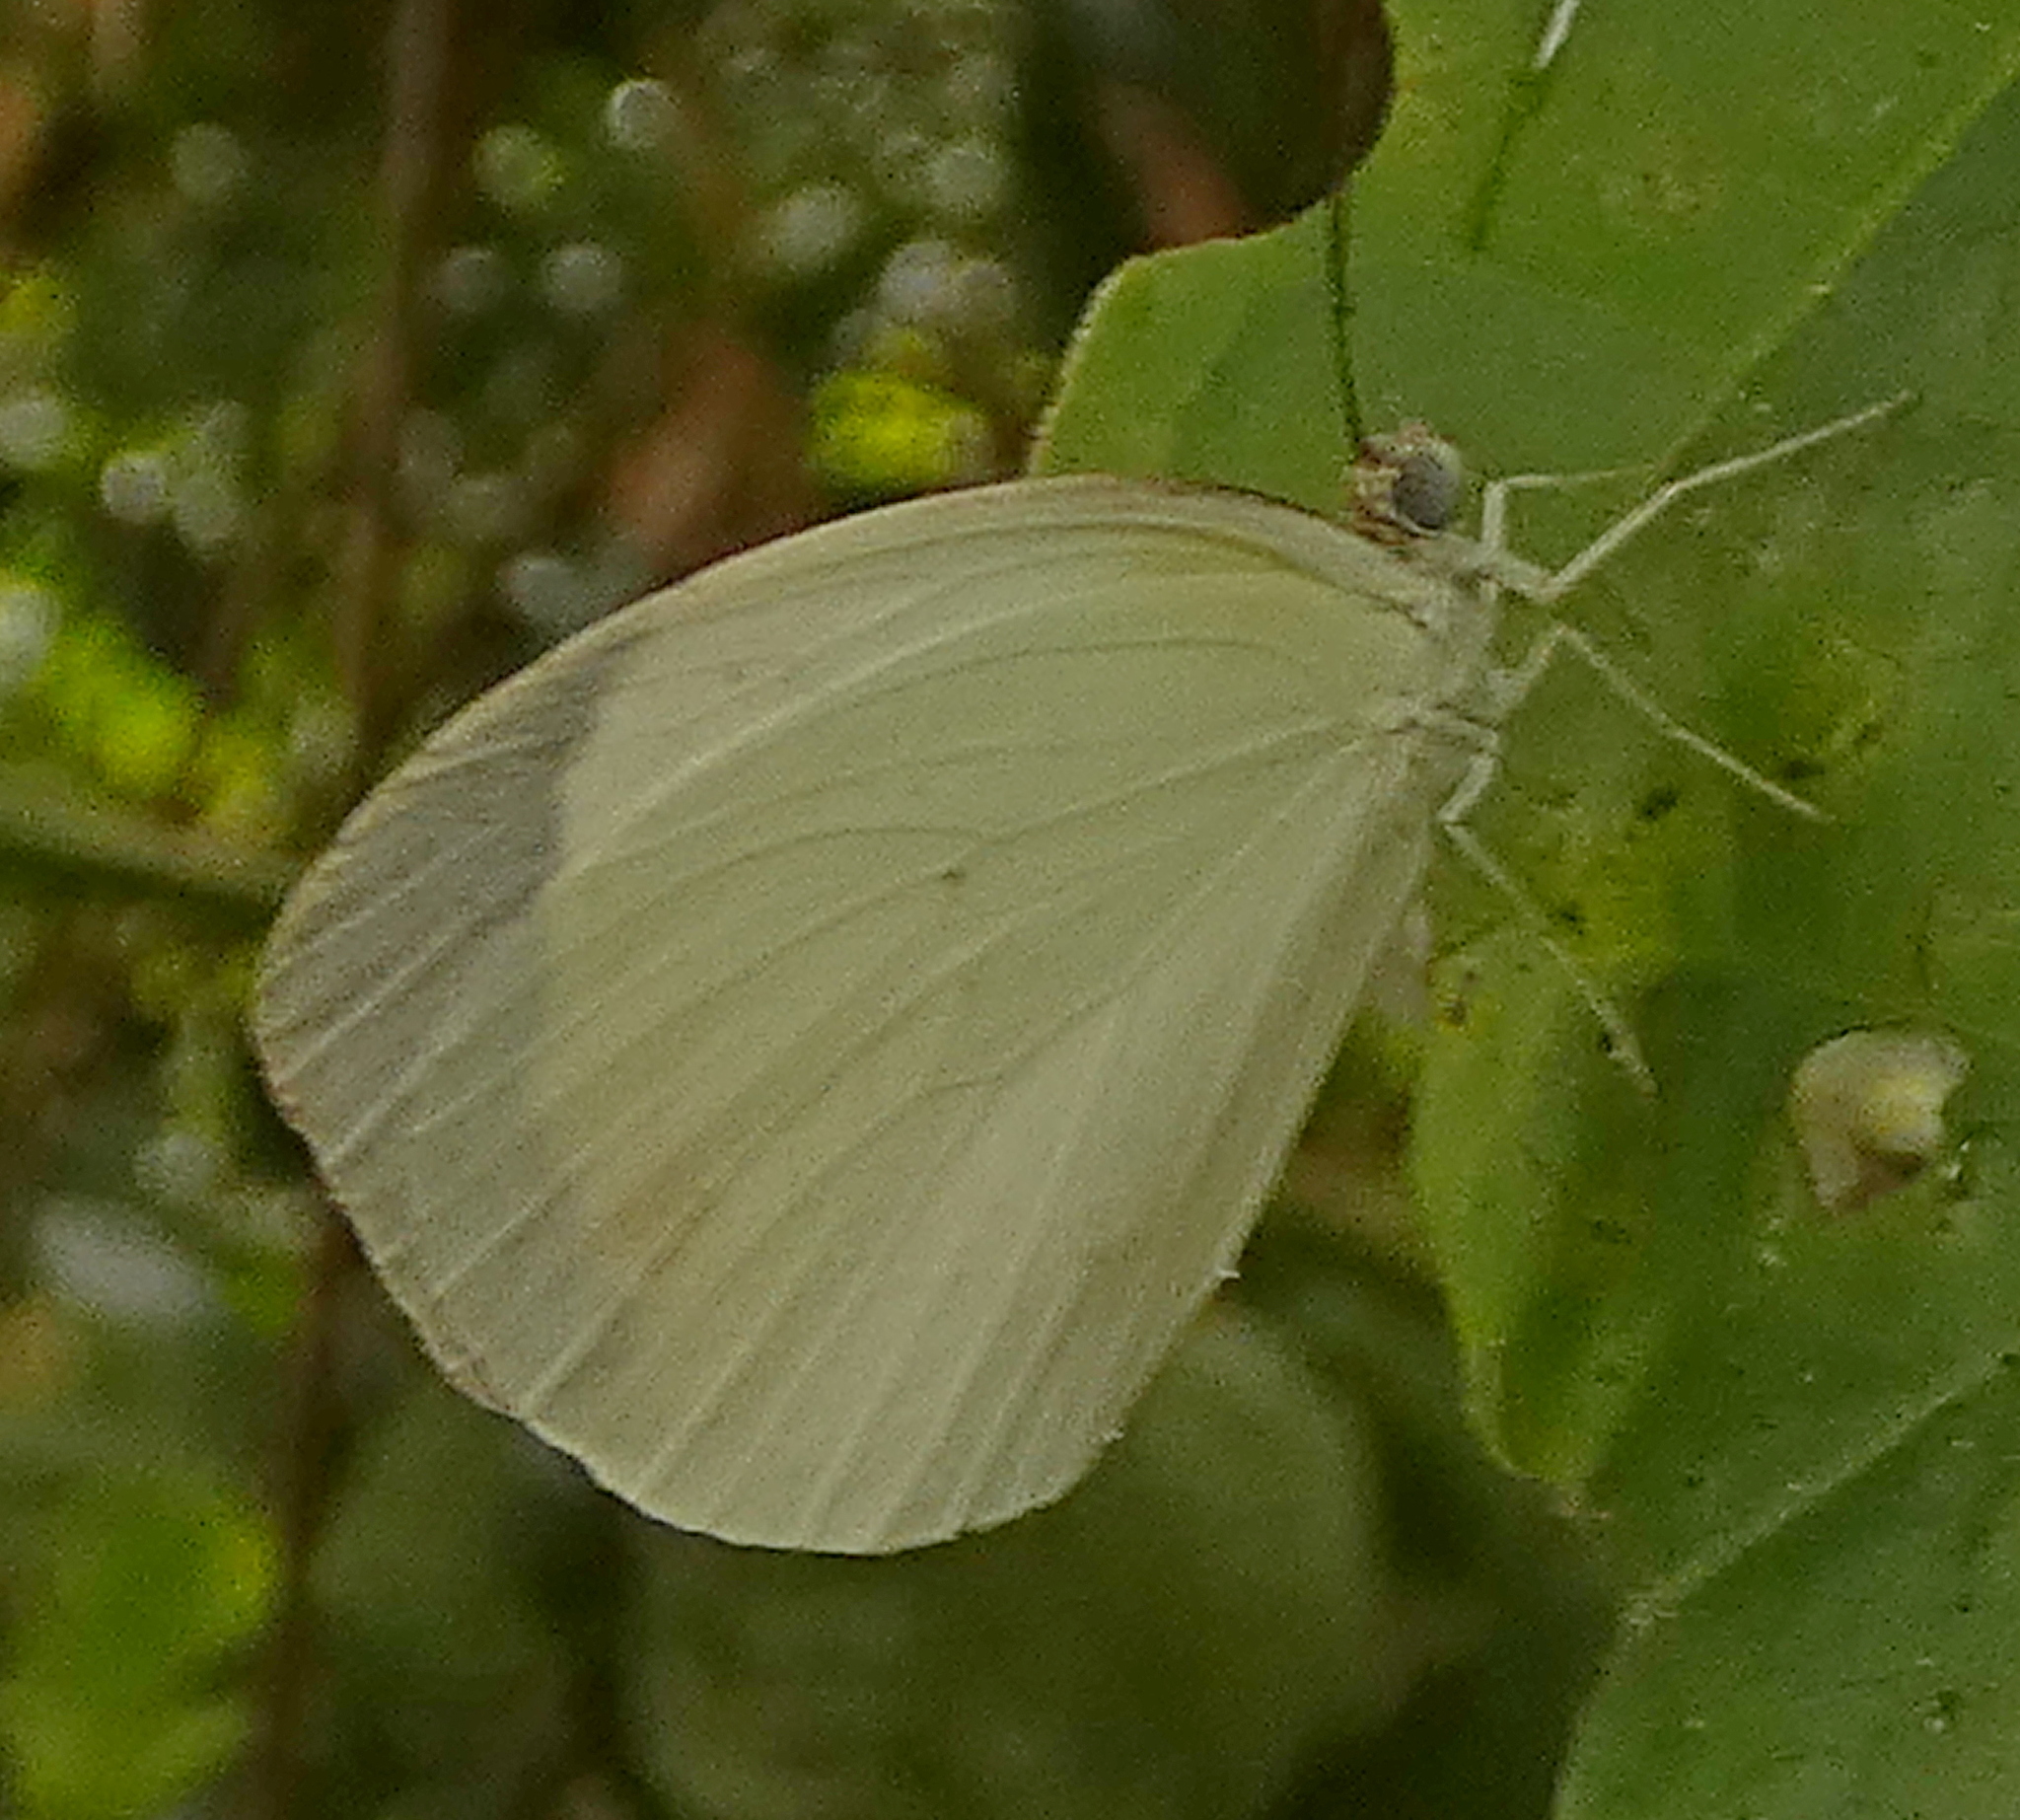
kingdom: Animalia
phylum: Arthropoda
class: Insecta
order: Lepidoptera
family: Pieridae
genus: Abaeis
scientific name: Abaeis albula
